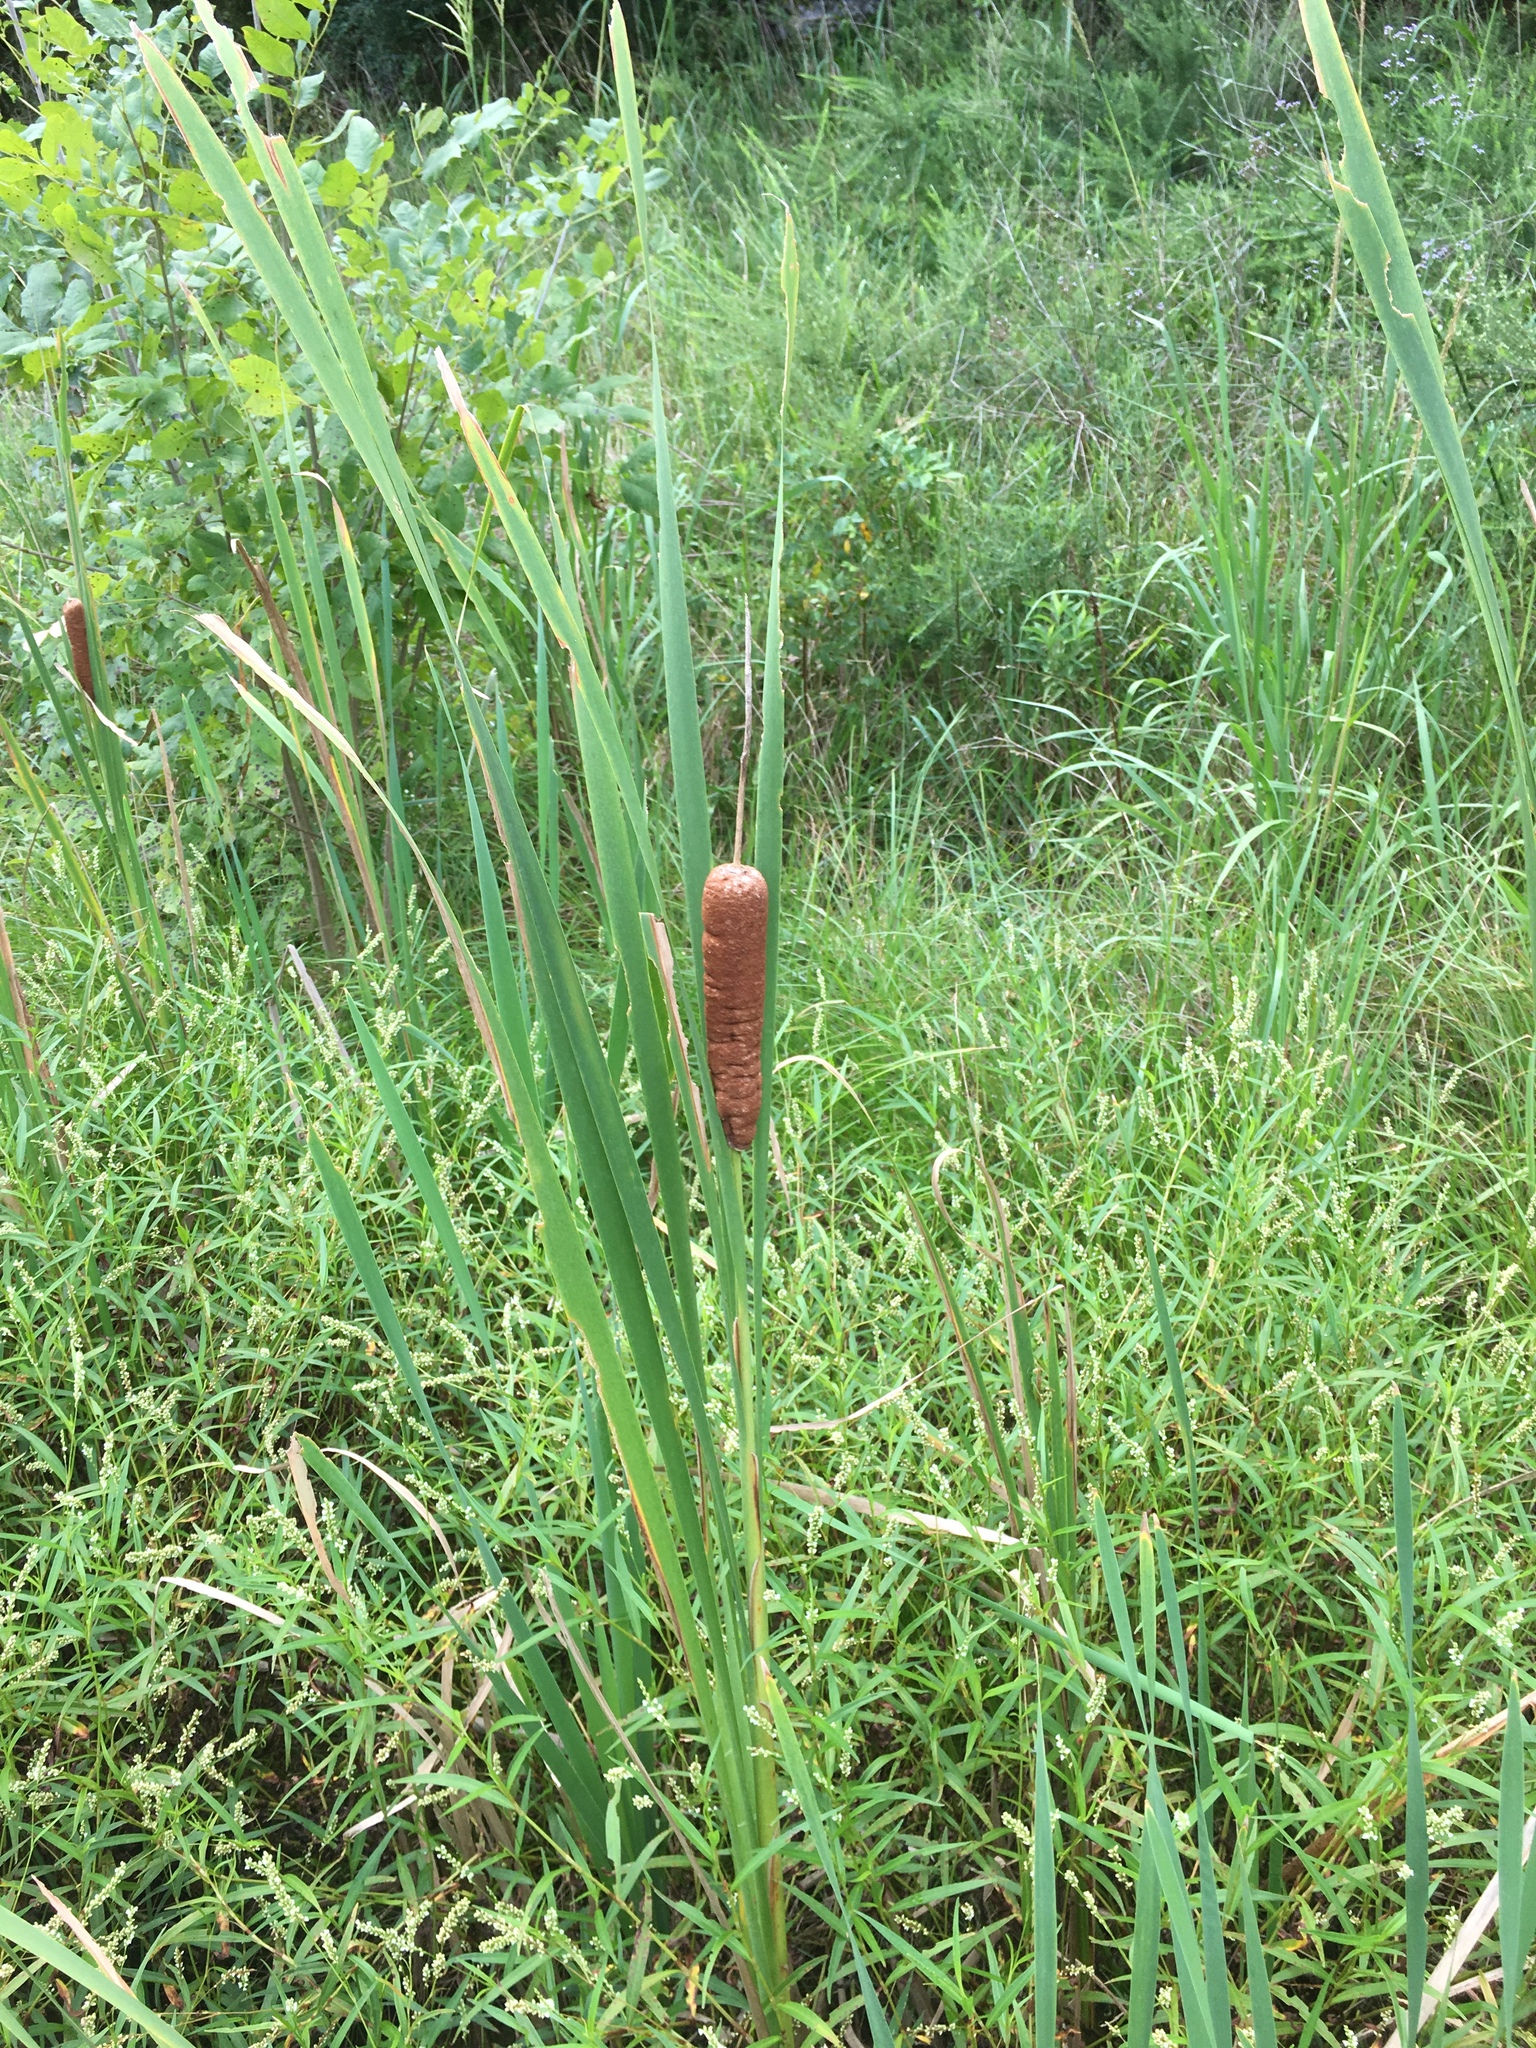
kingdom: Plantae
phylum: Tracheophyta
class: Liliopsida
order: Poales
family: Typhaceae
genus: Typha
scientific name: Typha latifolia
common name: Broadleaf cattail
